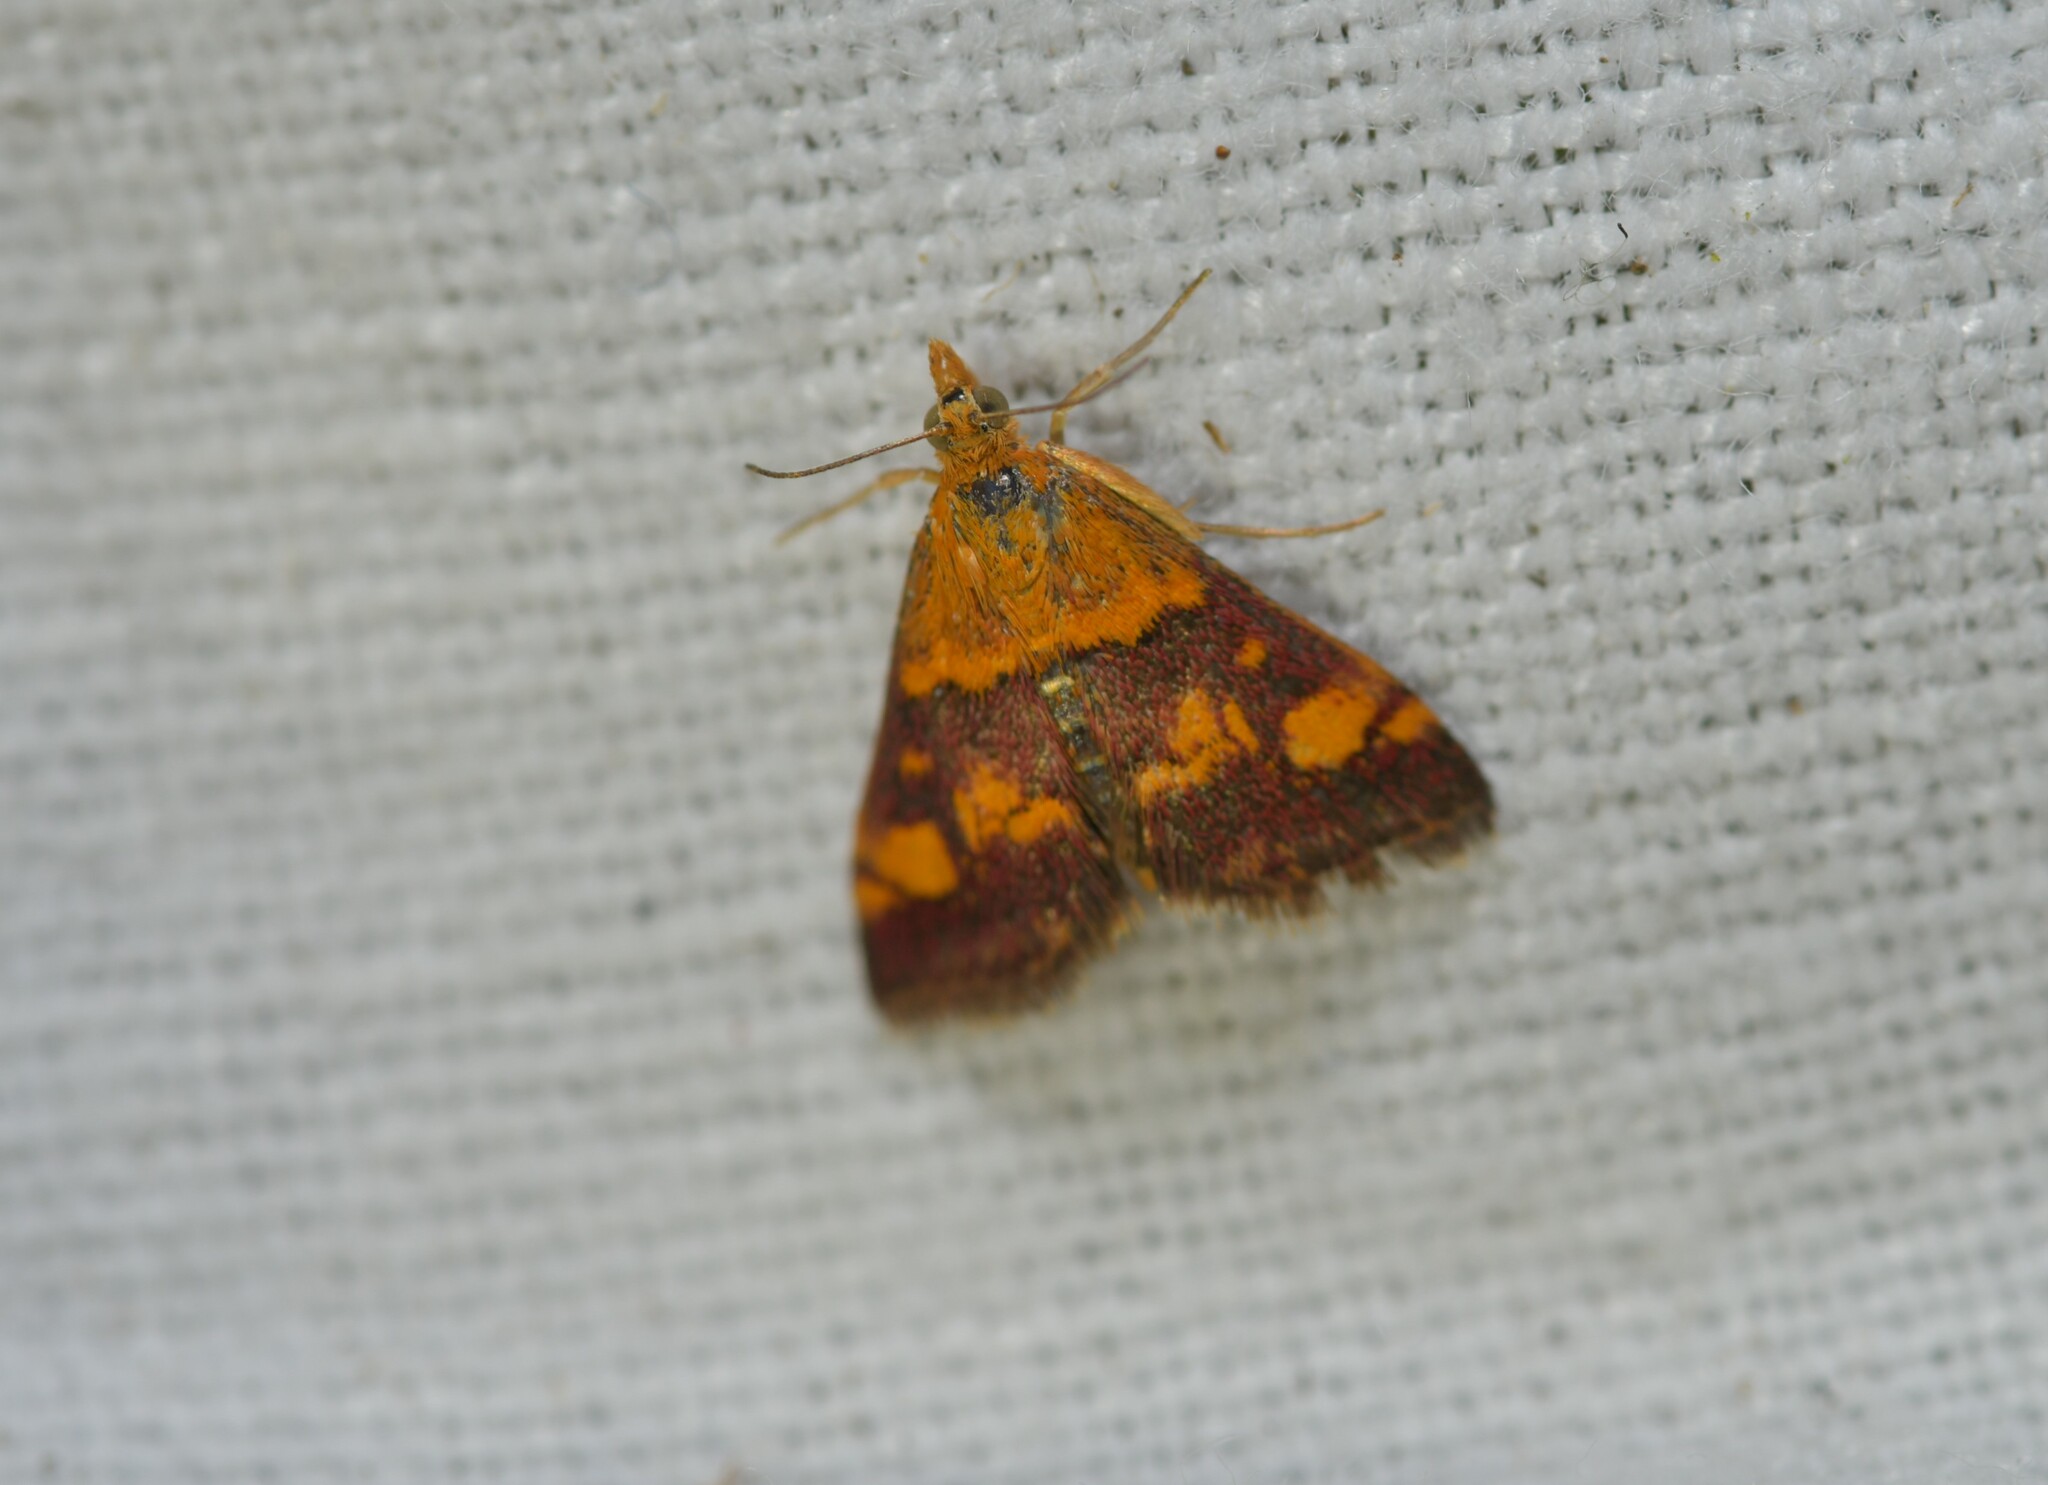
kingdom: Animalia
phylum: Arthropoda
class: Insecta
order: Lepidoptera
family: Crambidae
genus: Pyrausta
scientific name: Pyrausta aurata
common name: Small purple & gold
